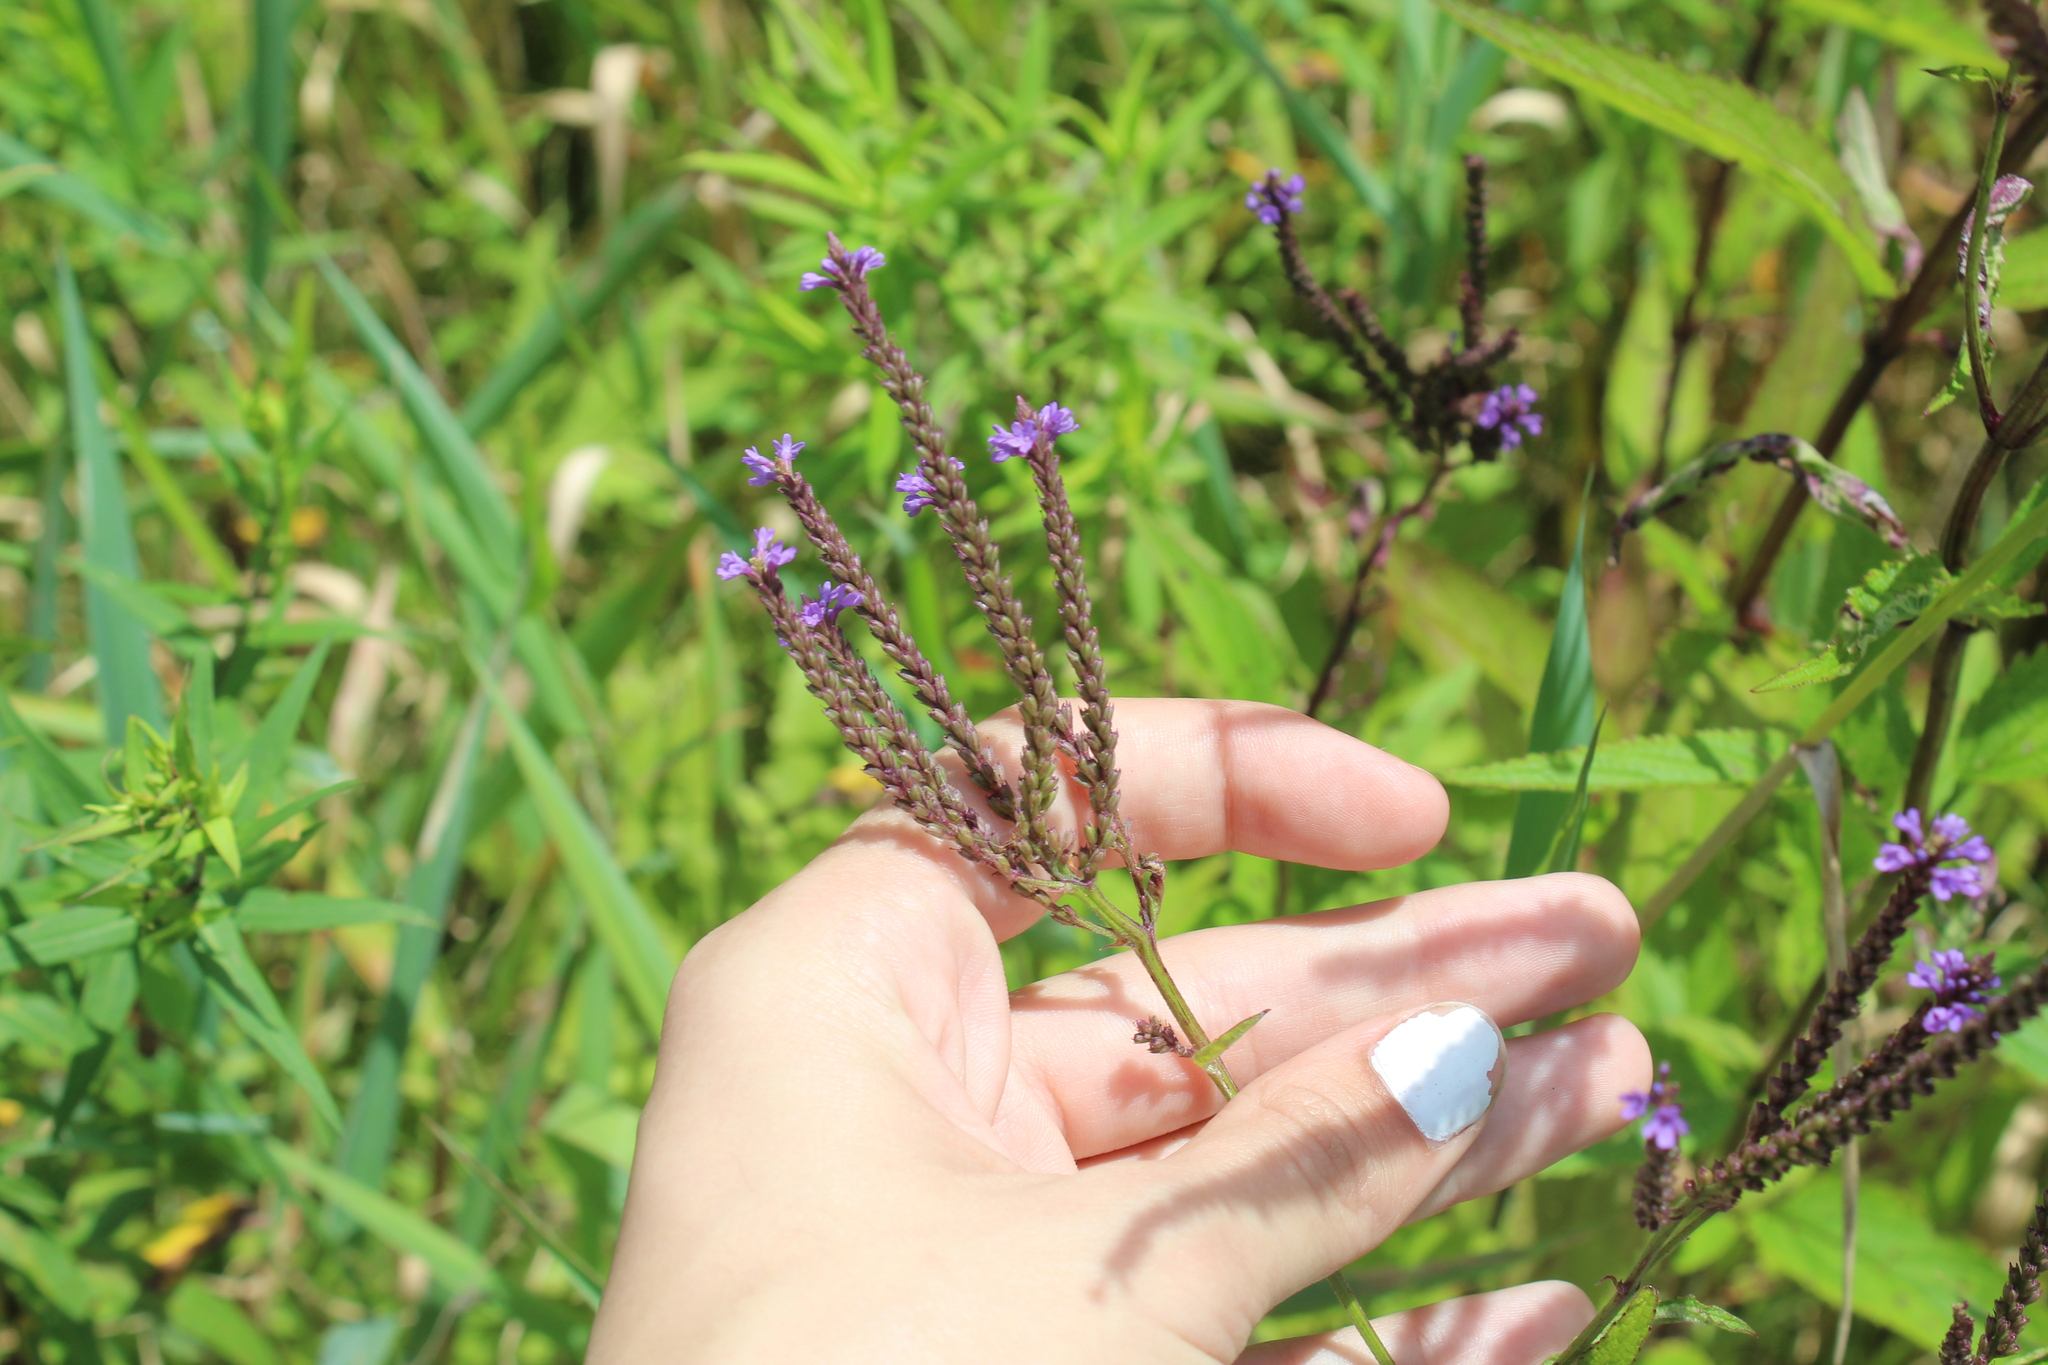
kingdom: Plantae
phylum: Tracheophyta
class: Magnoliopsida
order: Lamiales
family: Verbenaceae
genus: Verbena
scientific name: Verbena hastata
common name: American blue vervain
